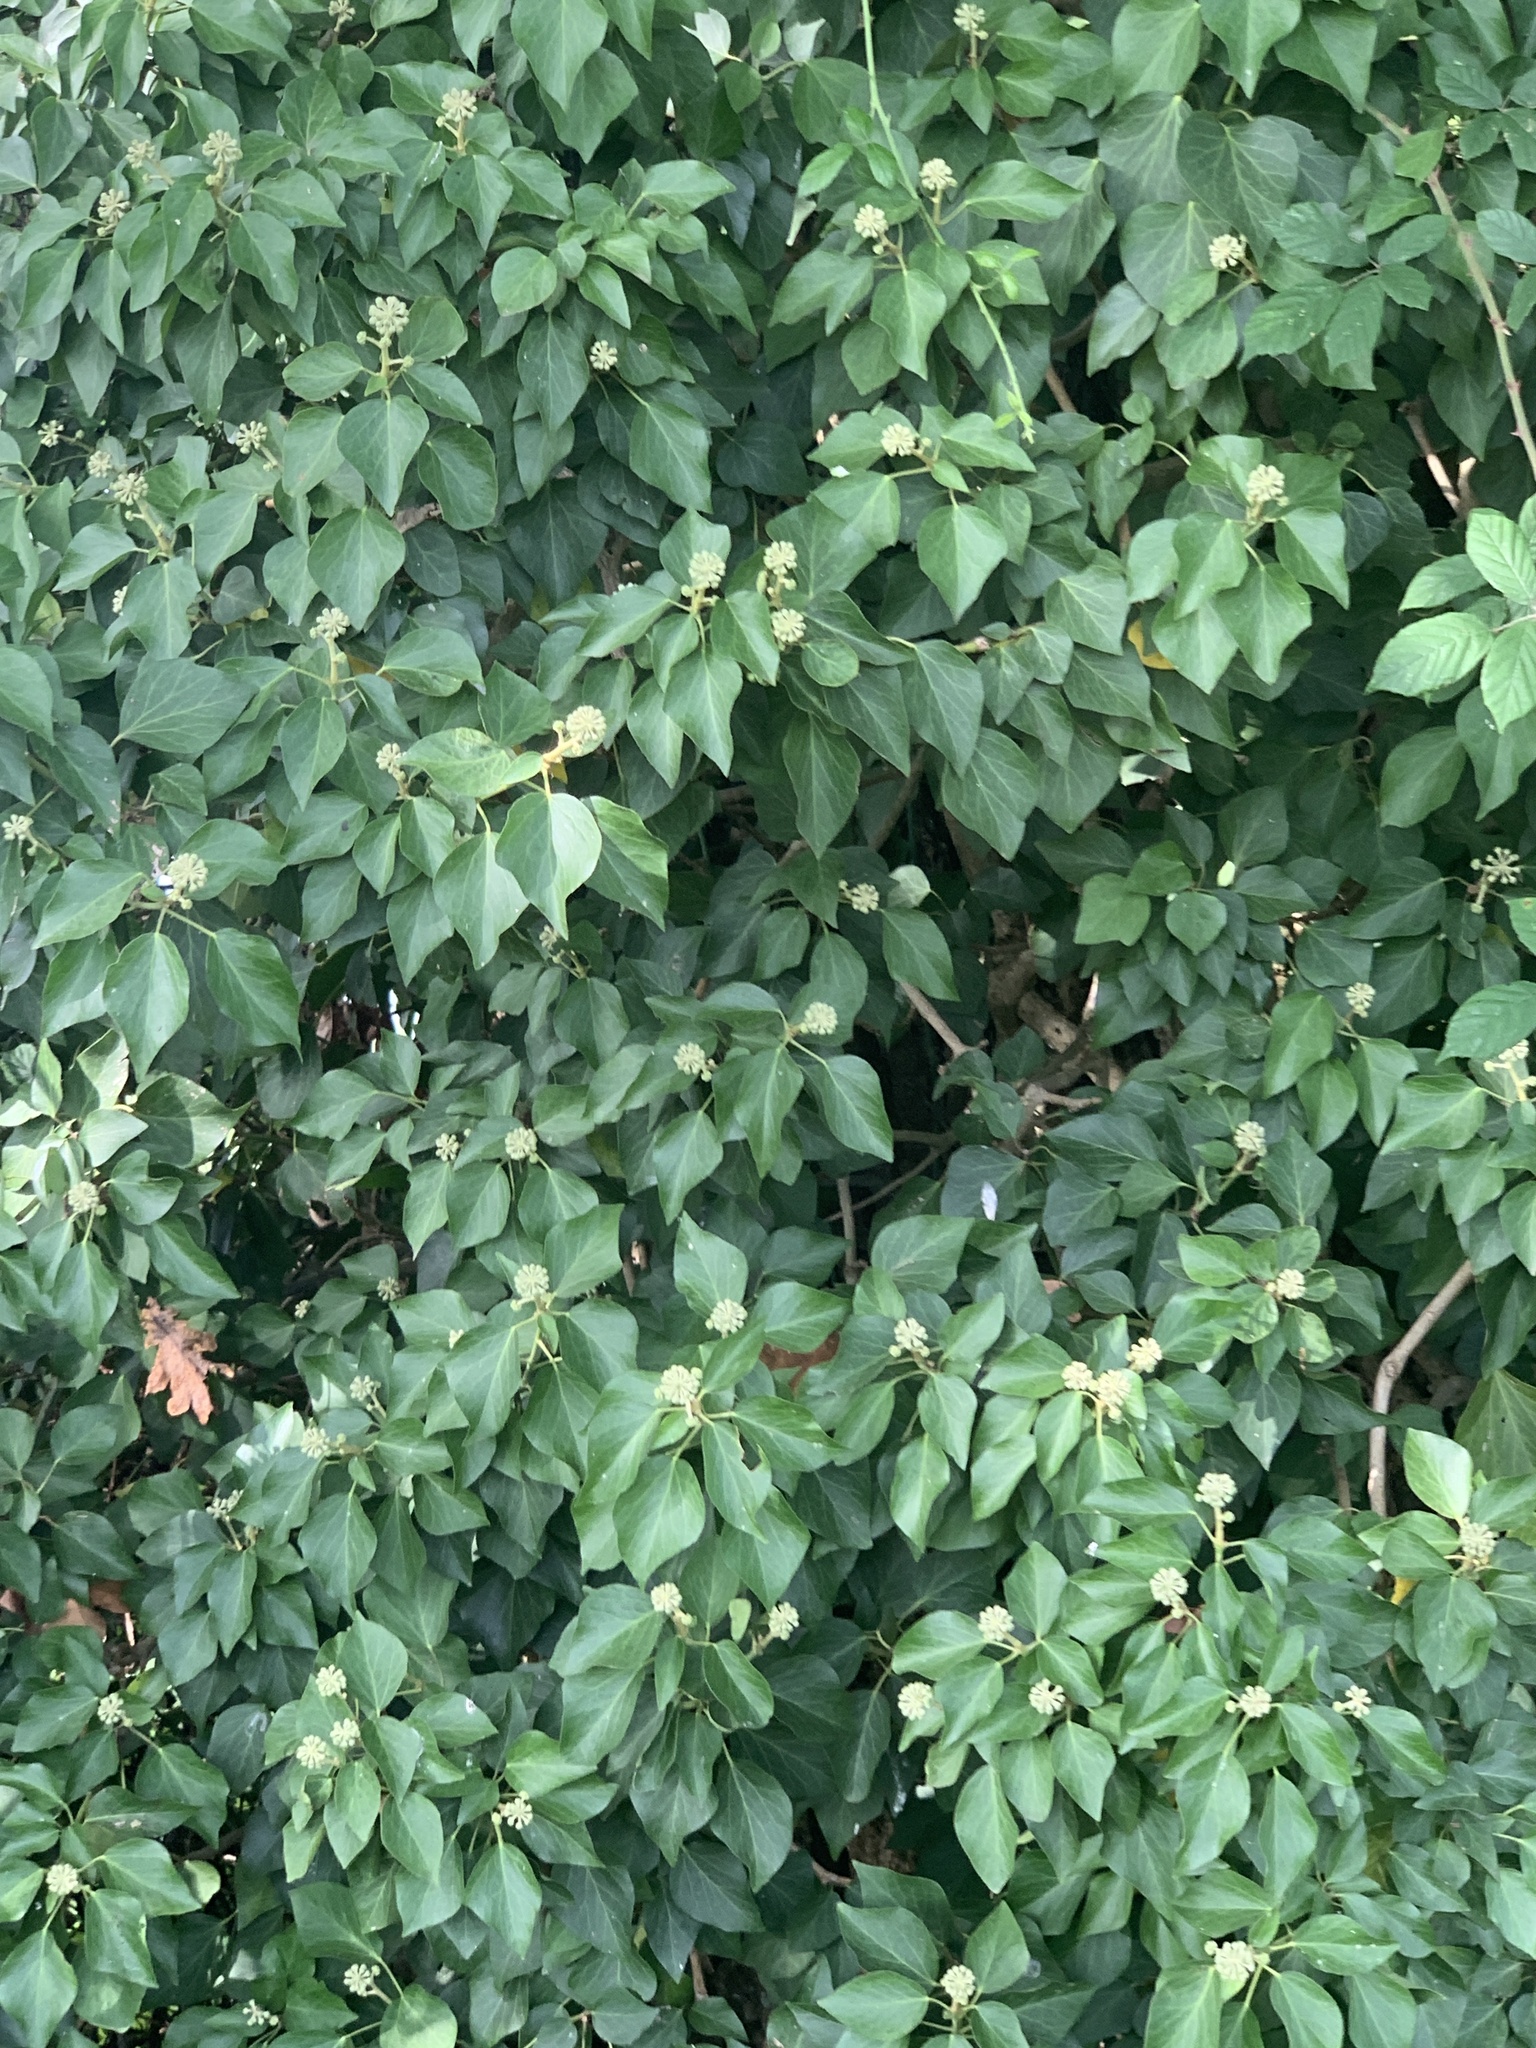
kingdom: Plantae
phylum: Tracheophyta
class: Magnoliopsida
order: Apiales
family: Araliaceae
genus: Hedera
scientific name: Hedera helix
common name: Ivy
